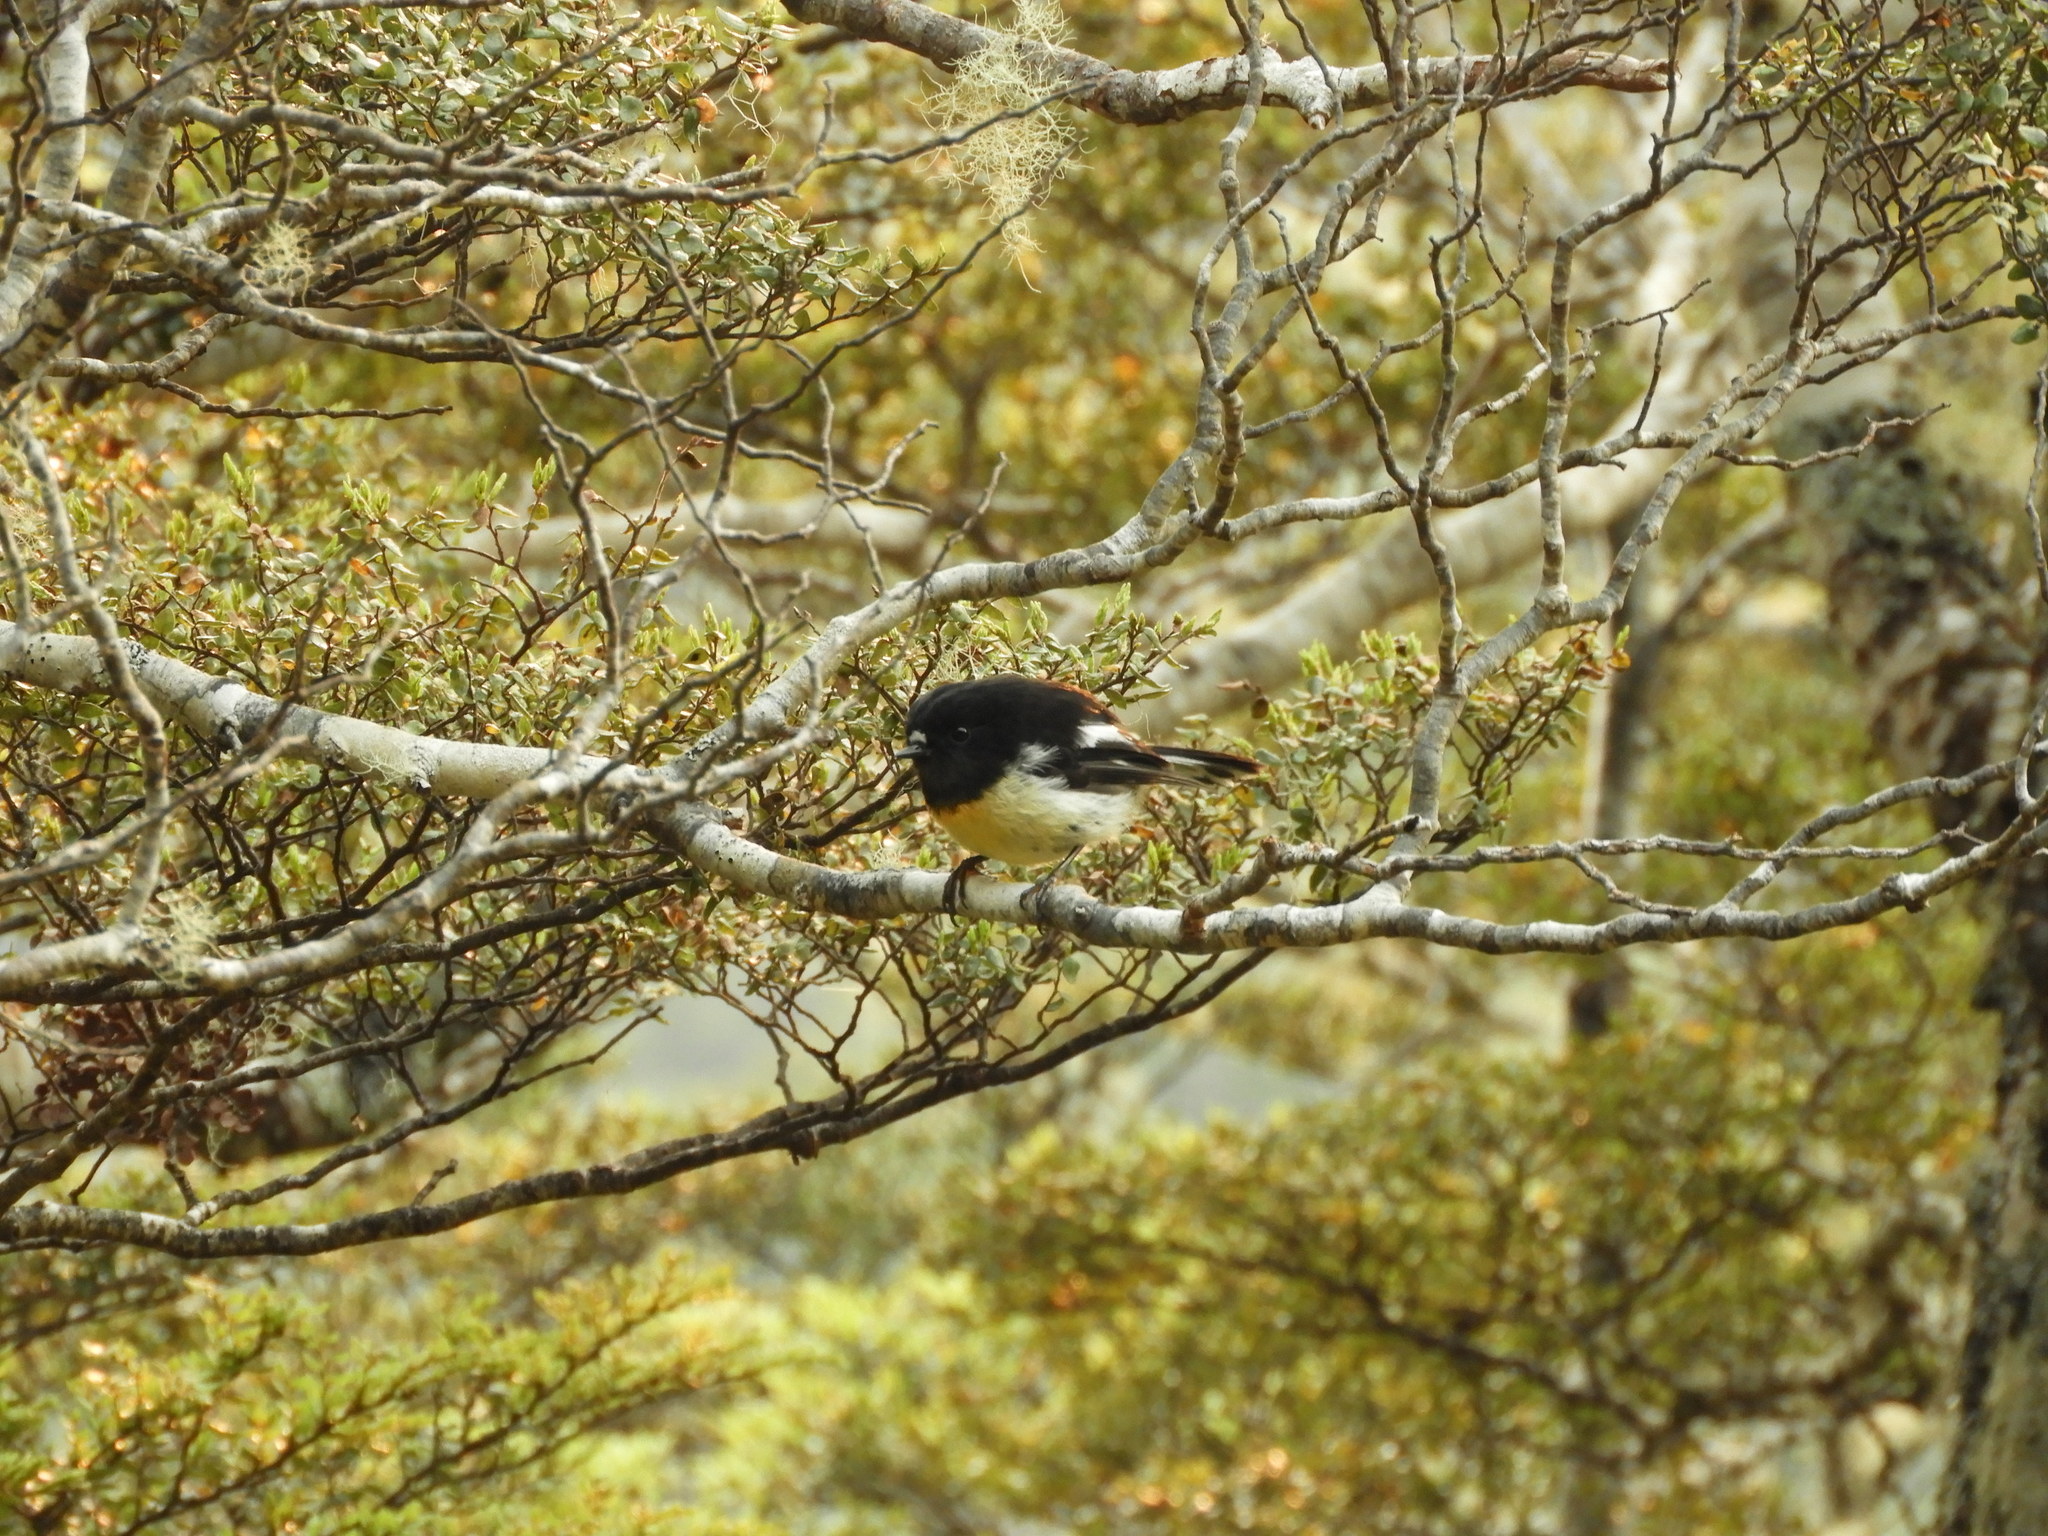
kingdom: Animalia
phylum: Chordata
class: Aves
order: Passeriformes
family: Petroicidae
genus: Petroica
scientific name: Petroica macrocephala
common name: Tomtit
